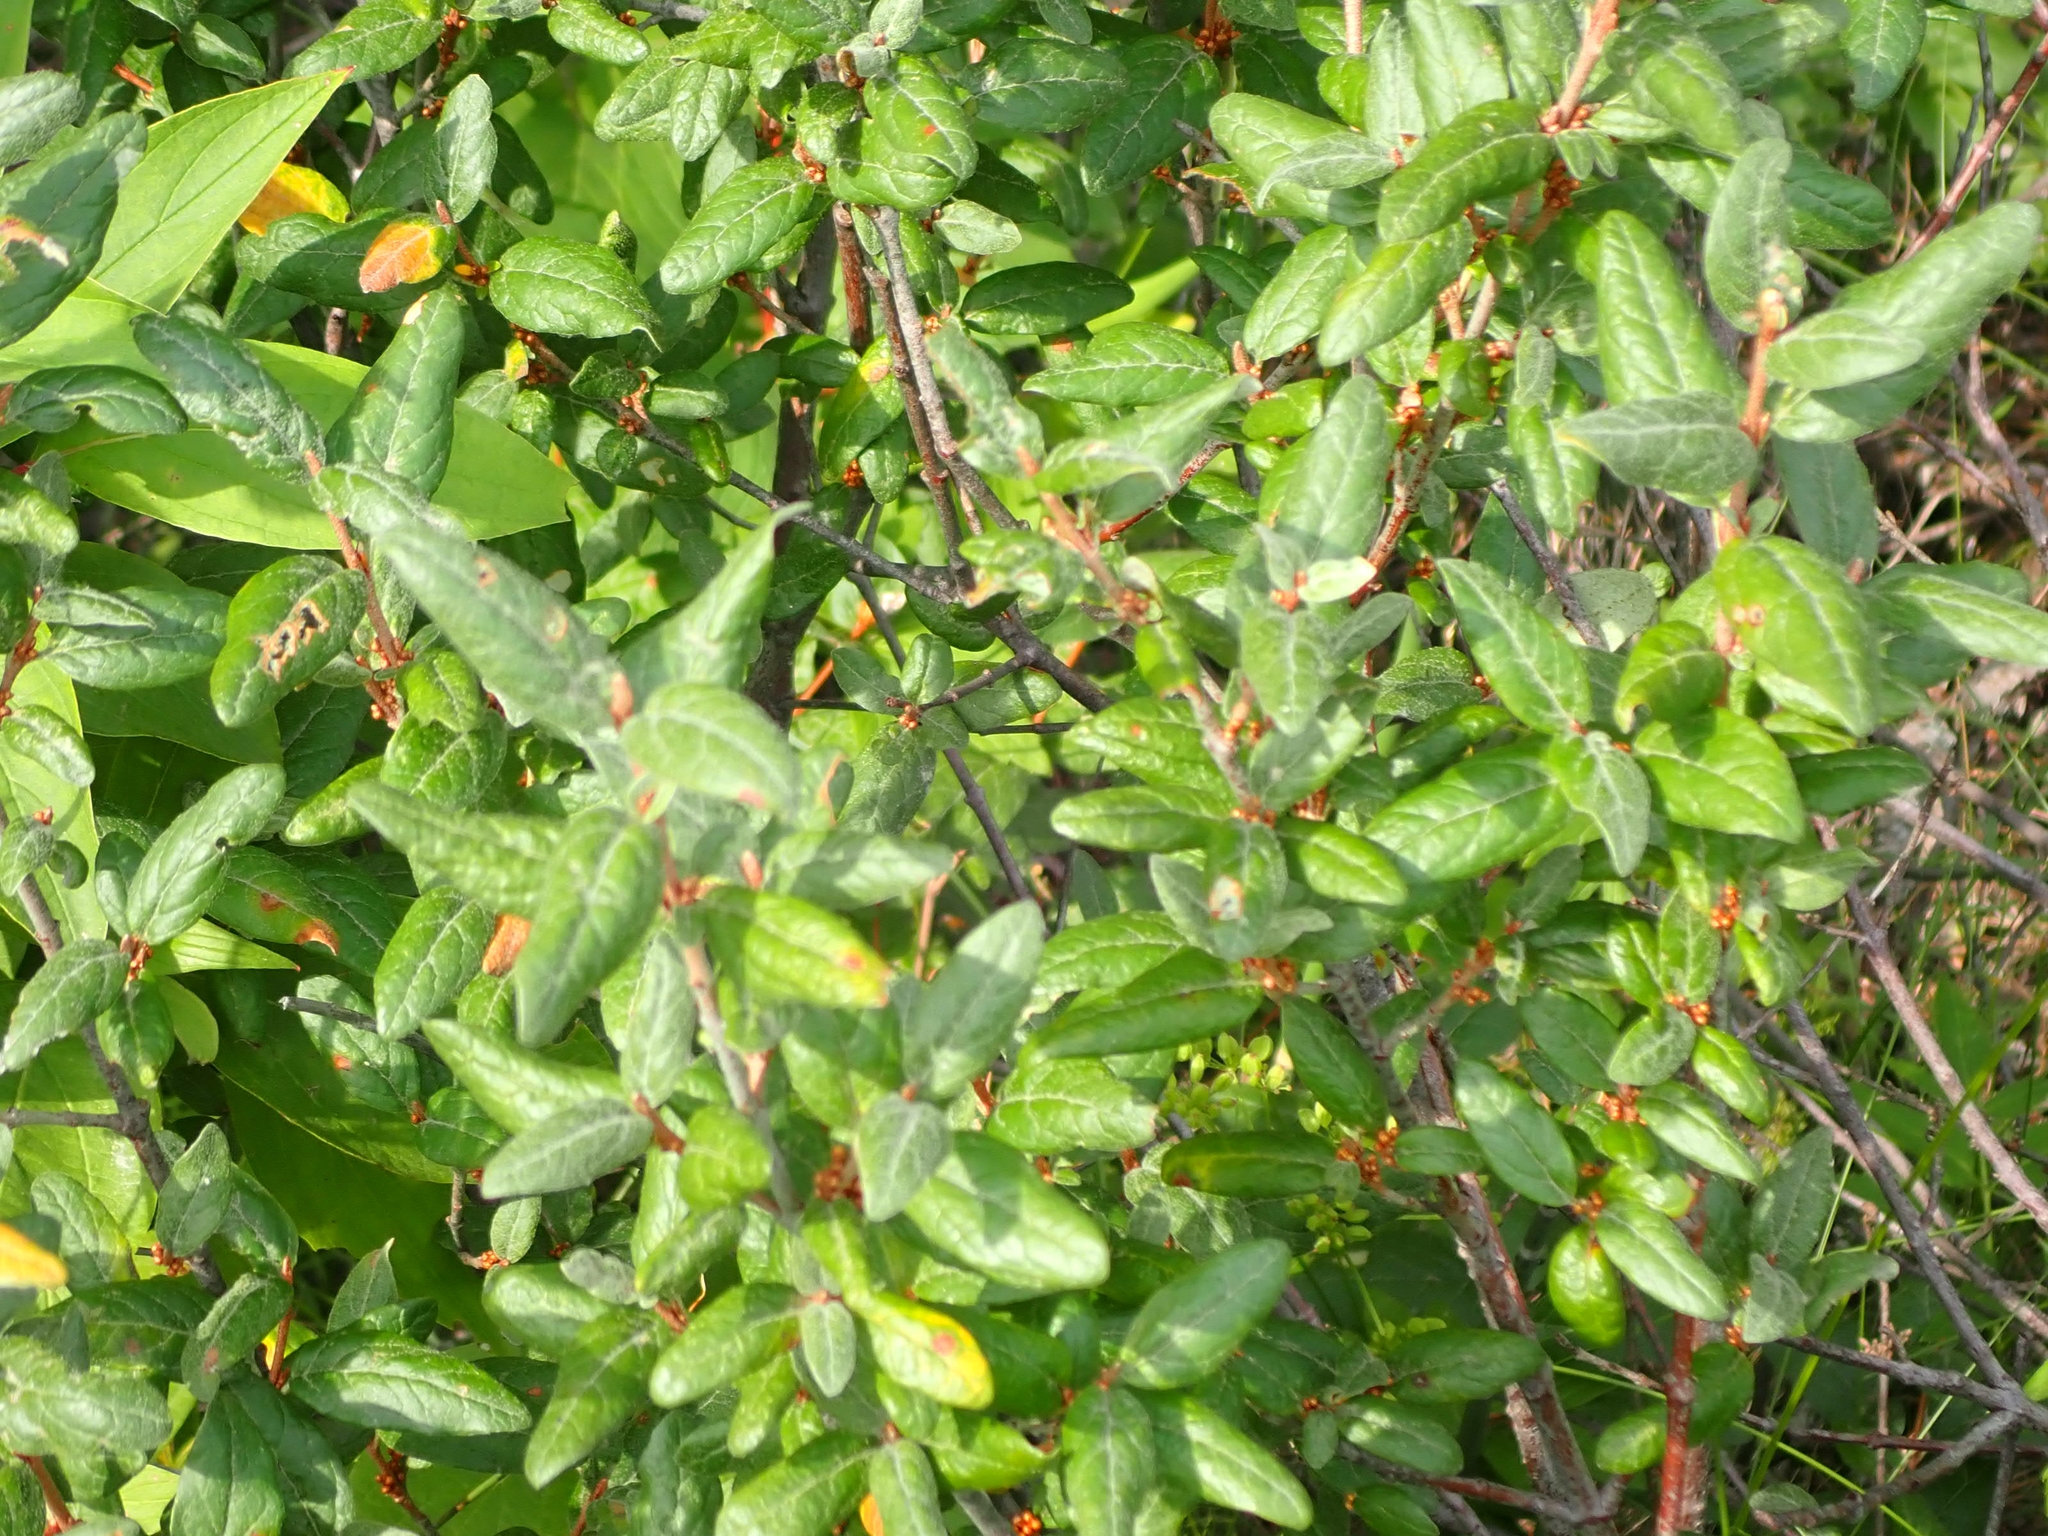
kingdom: Plantae
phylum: Tracheophyta
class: Magnoliopsida
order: Rosales
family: Elaeagnaceae
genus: Shepherdia
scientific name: Shepherdia canadensis
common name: Soapberry
